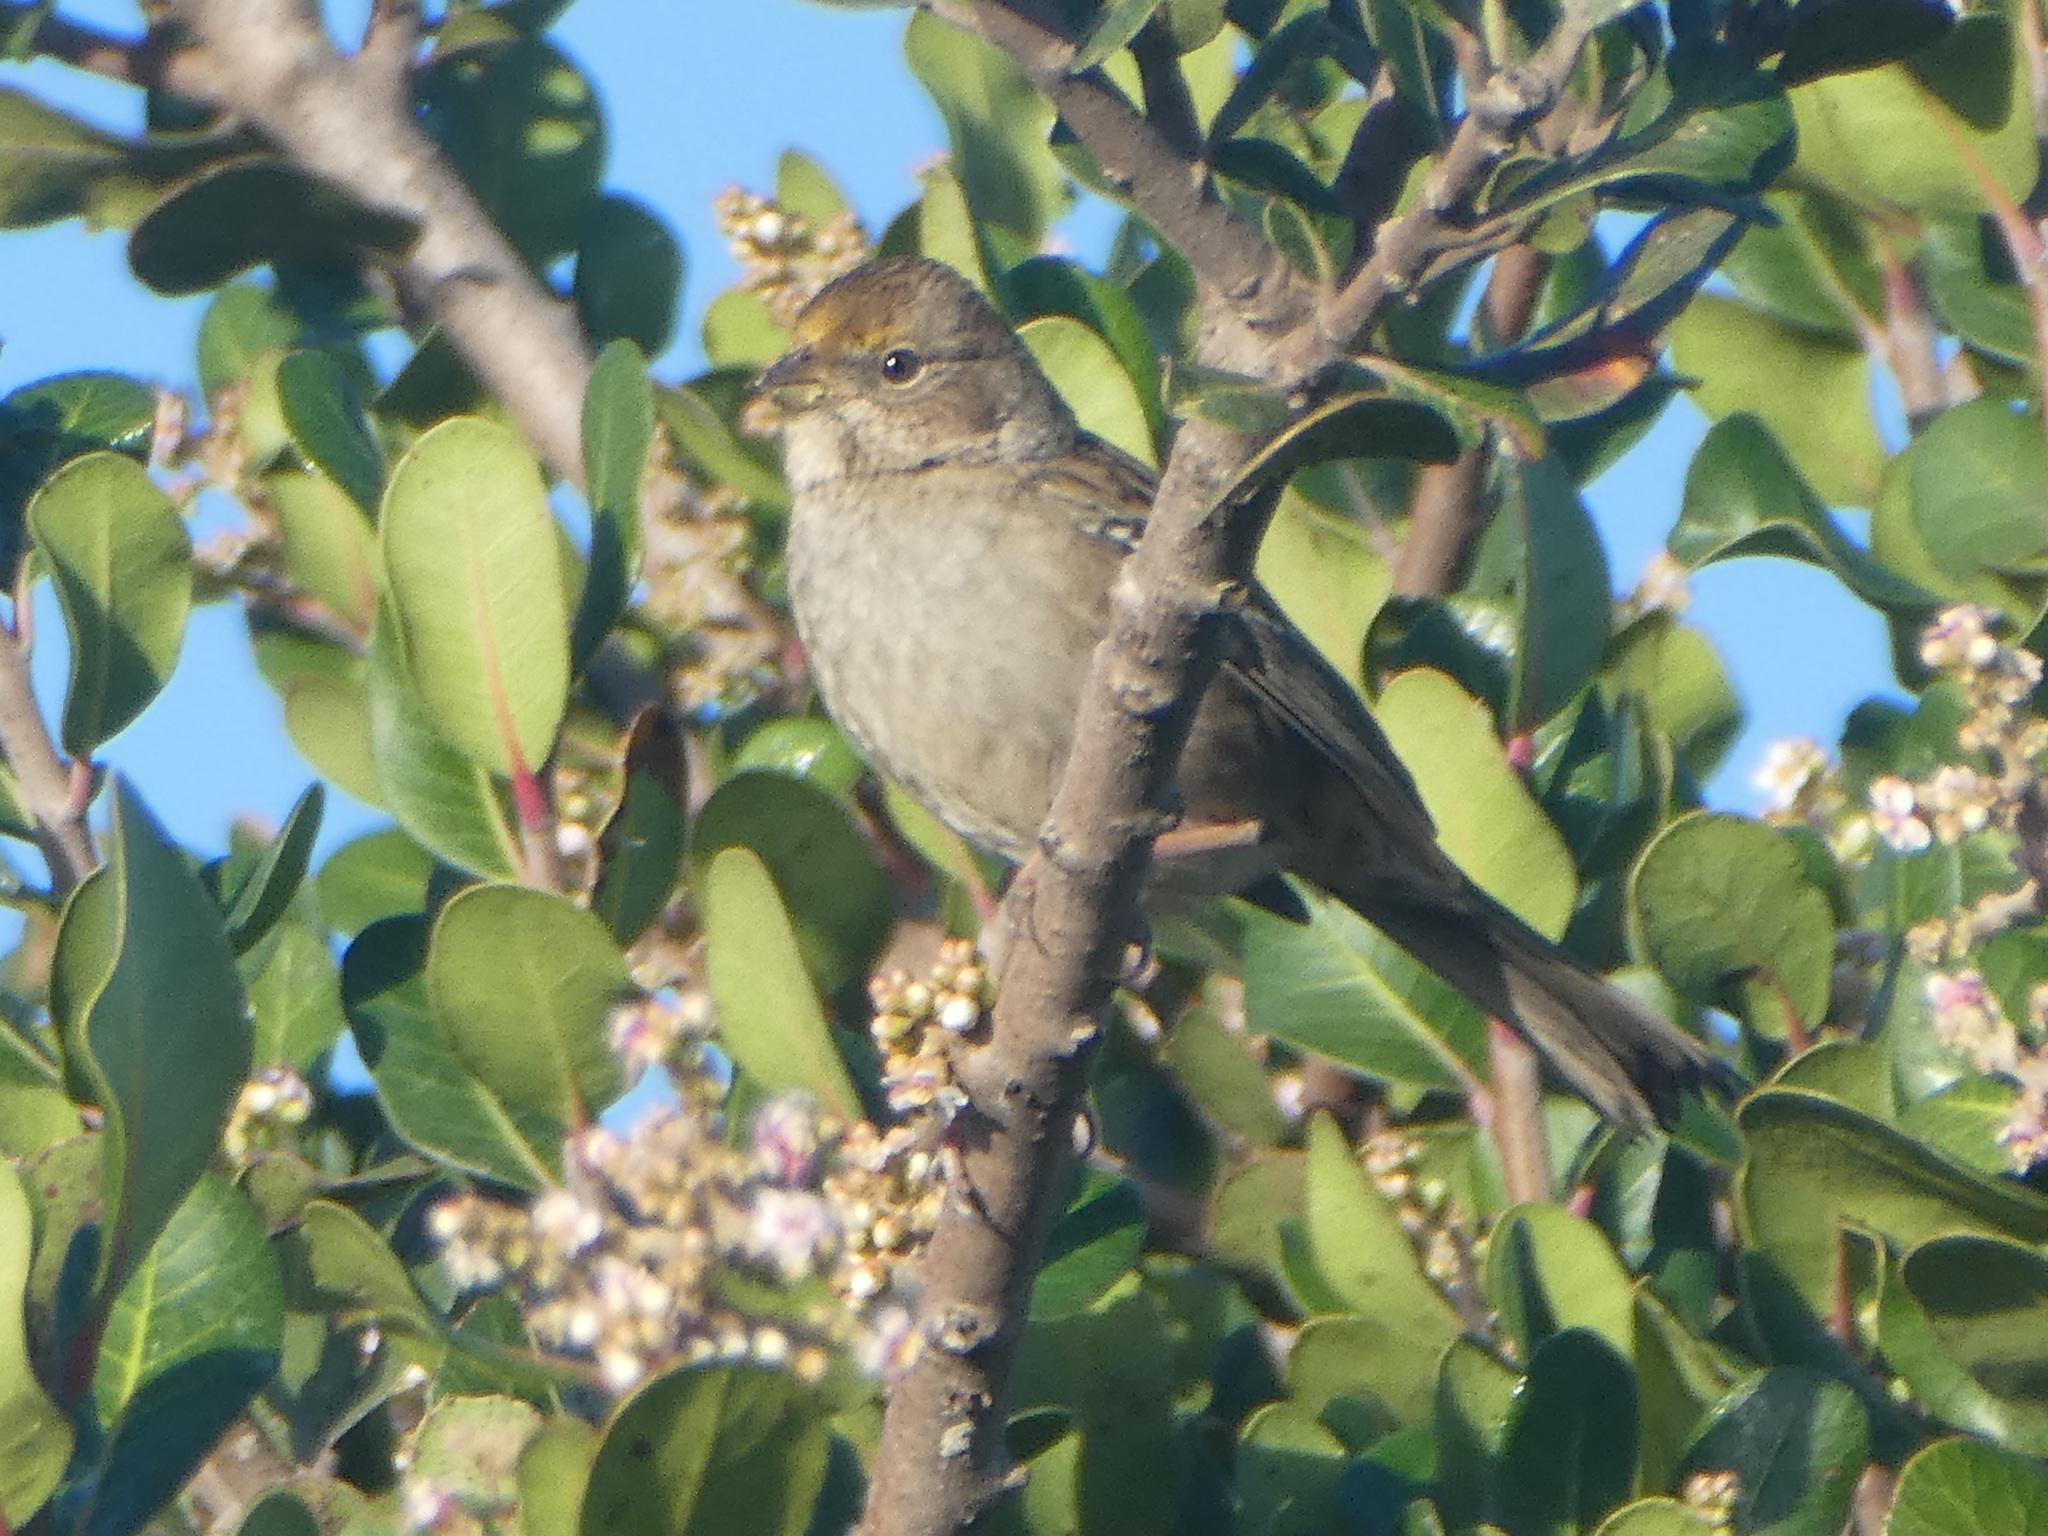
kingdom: Animalia
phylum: Chordata
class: Aves
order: Passeriformes
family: Passerellidae
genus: Zonotrichia
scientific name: Zonotrichia atricapilla
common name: Golden-crowned sparrow
